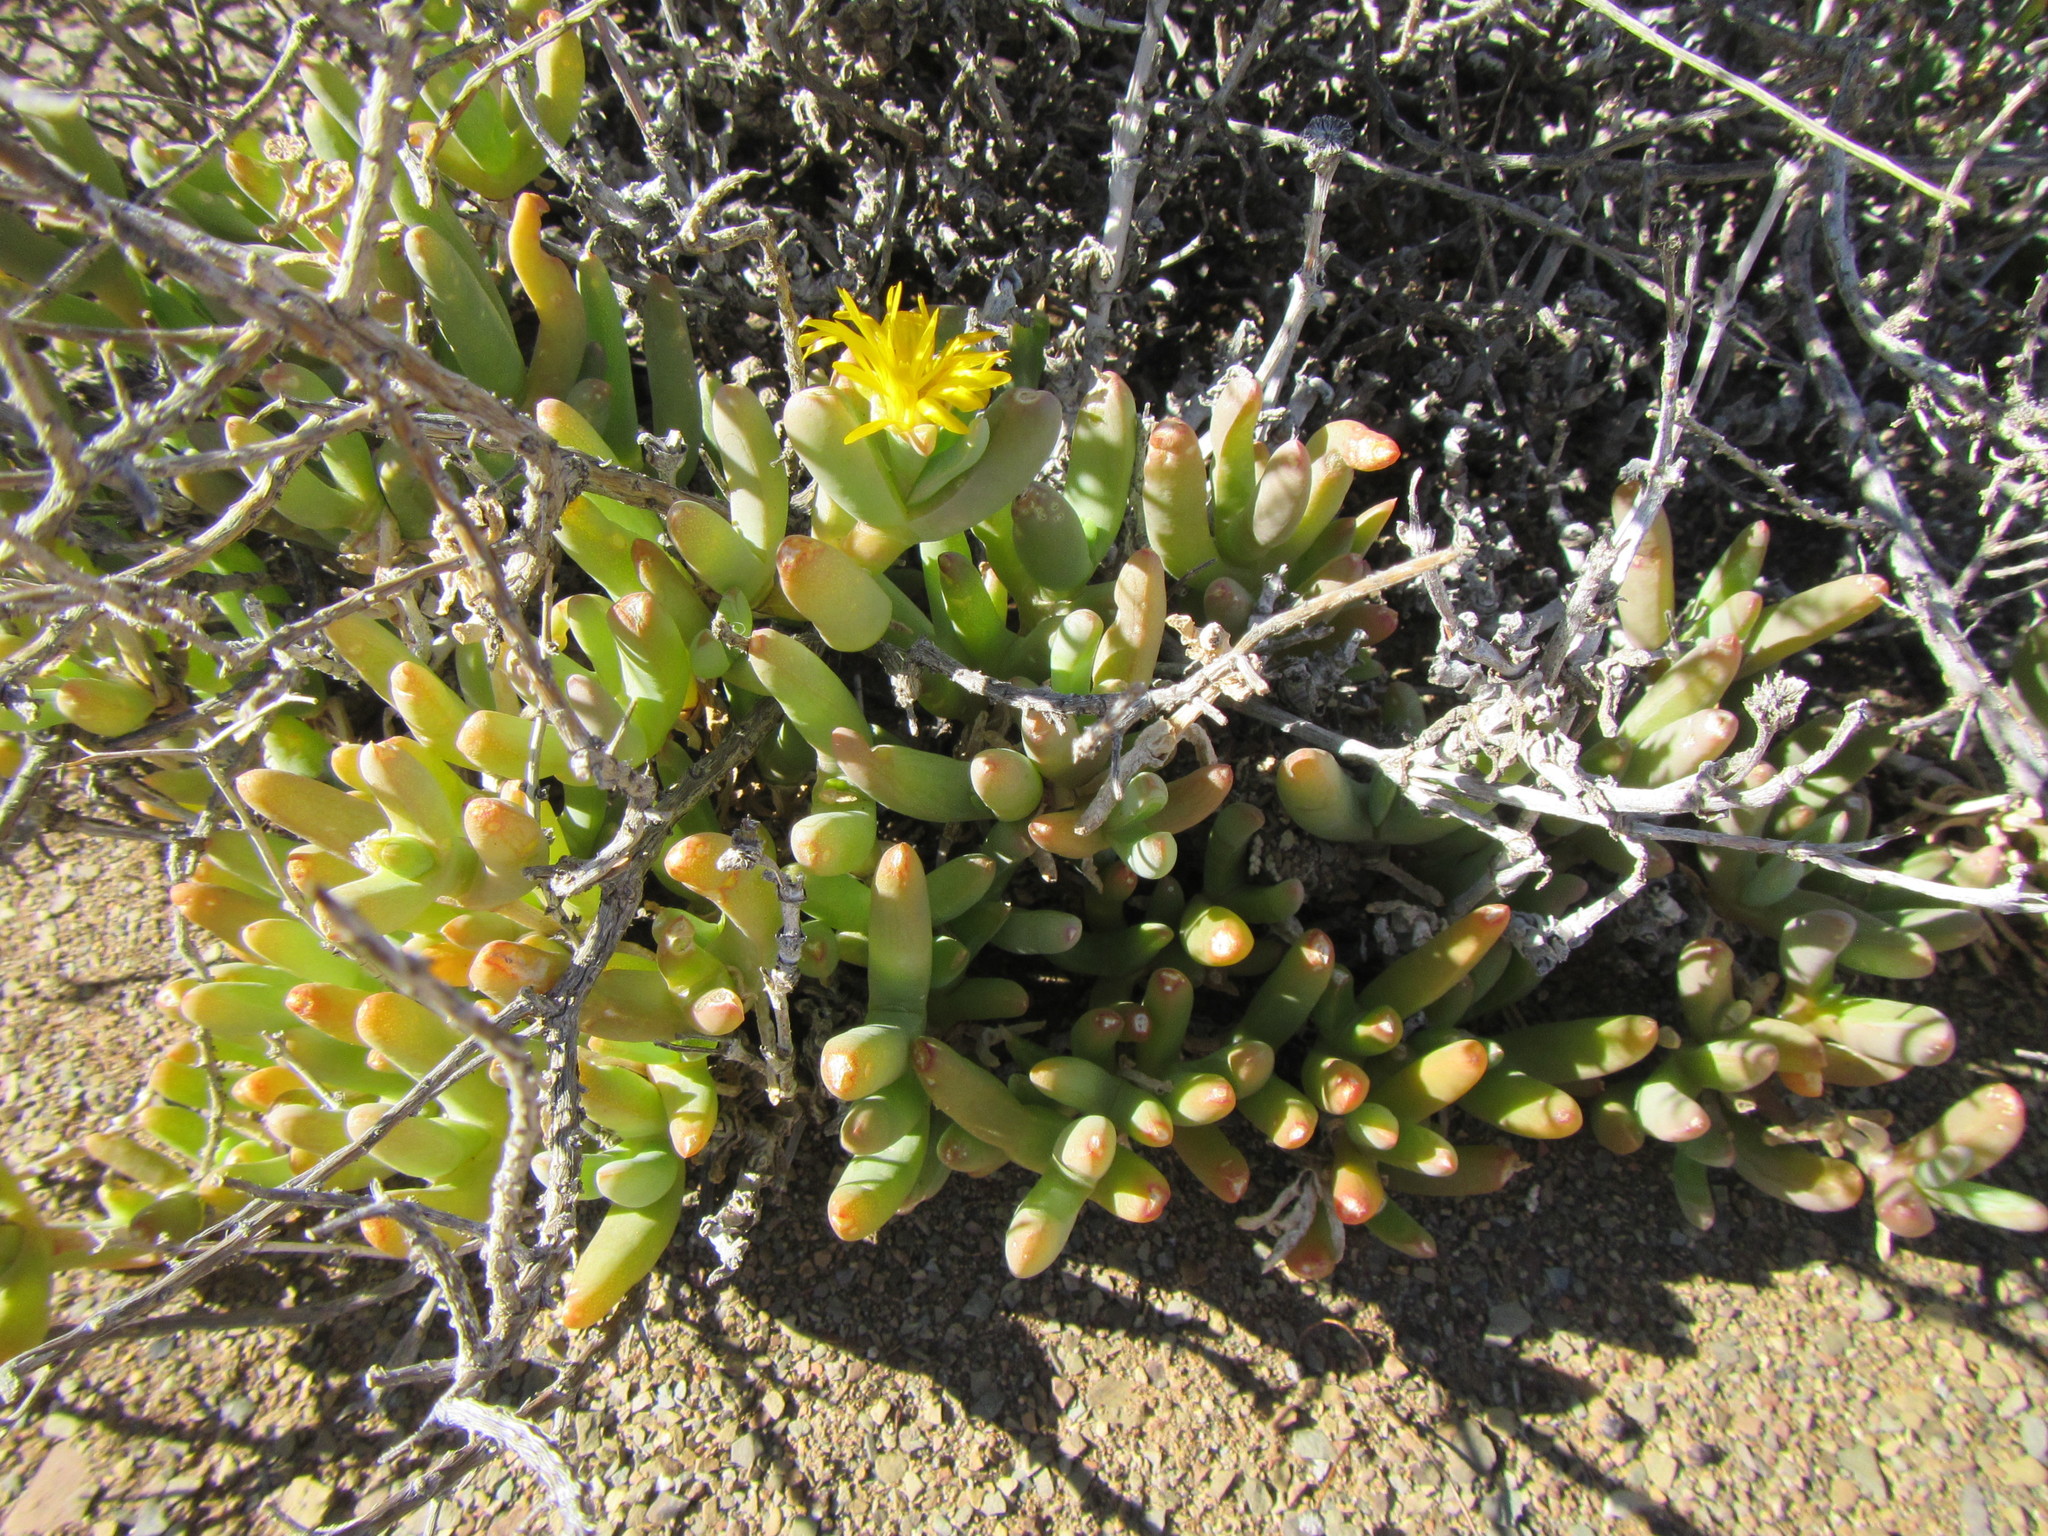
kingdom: Plantae
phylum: Tracheophyta
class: Magnoliopsida
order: Caryophyllales
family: Aizoaceae
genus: Malephora
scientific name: Malephora crassa
